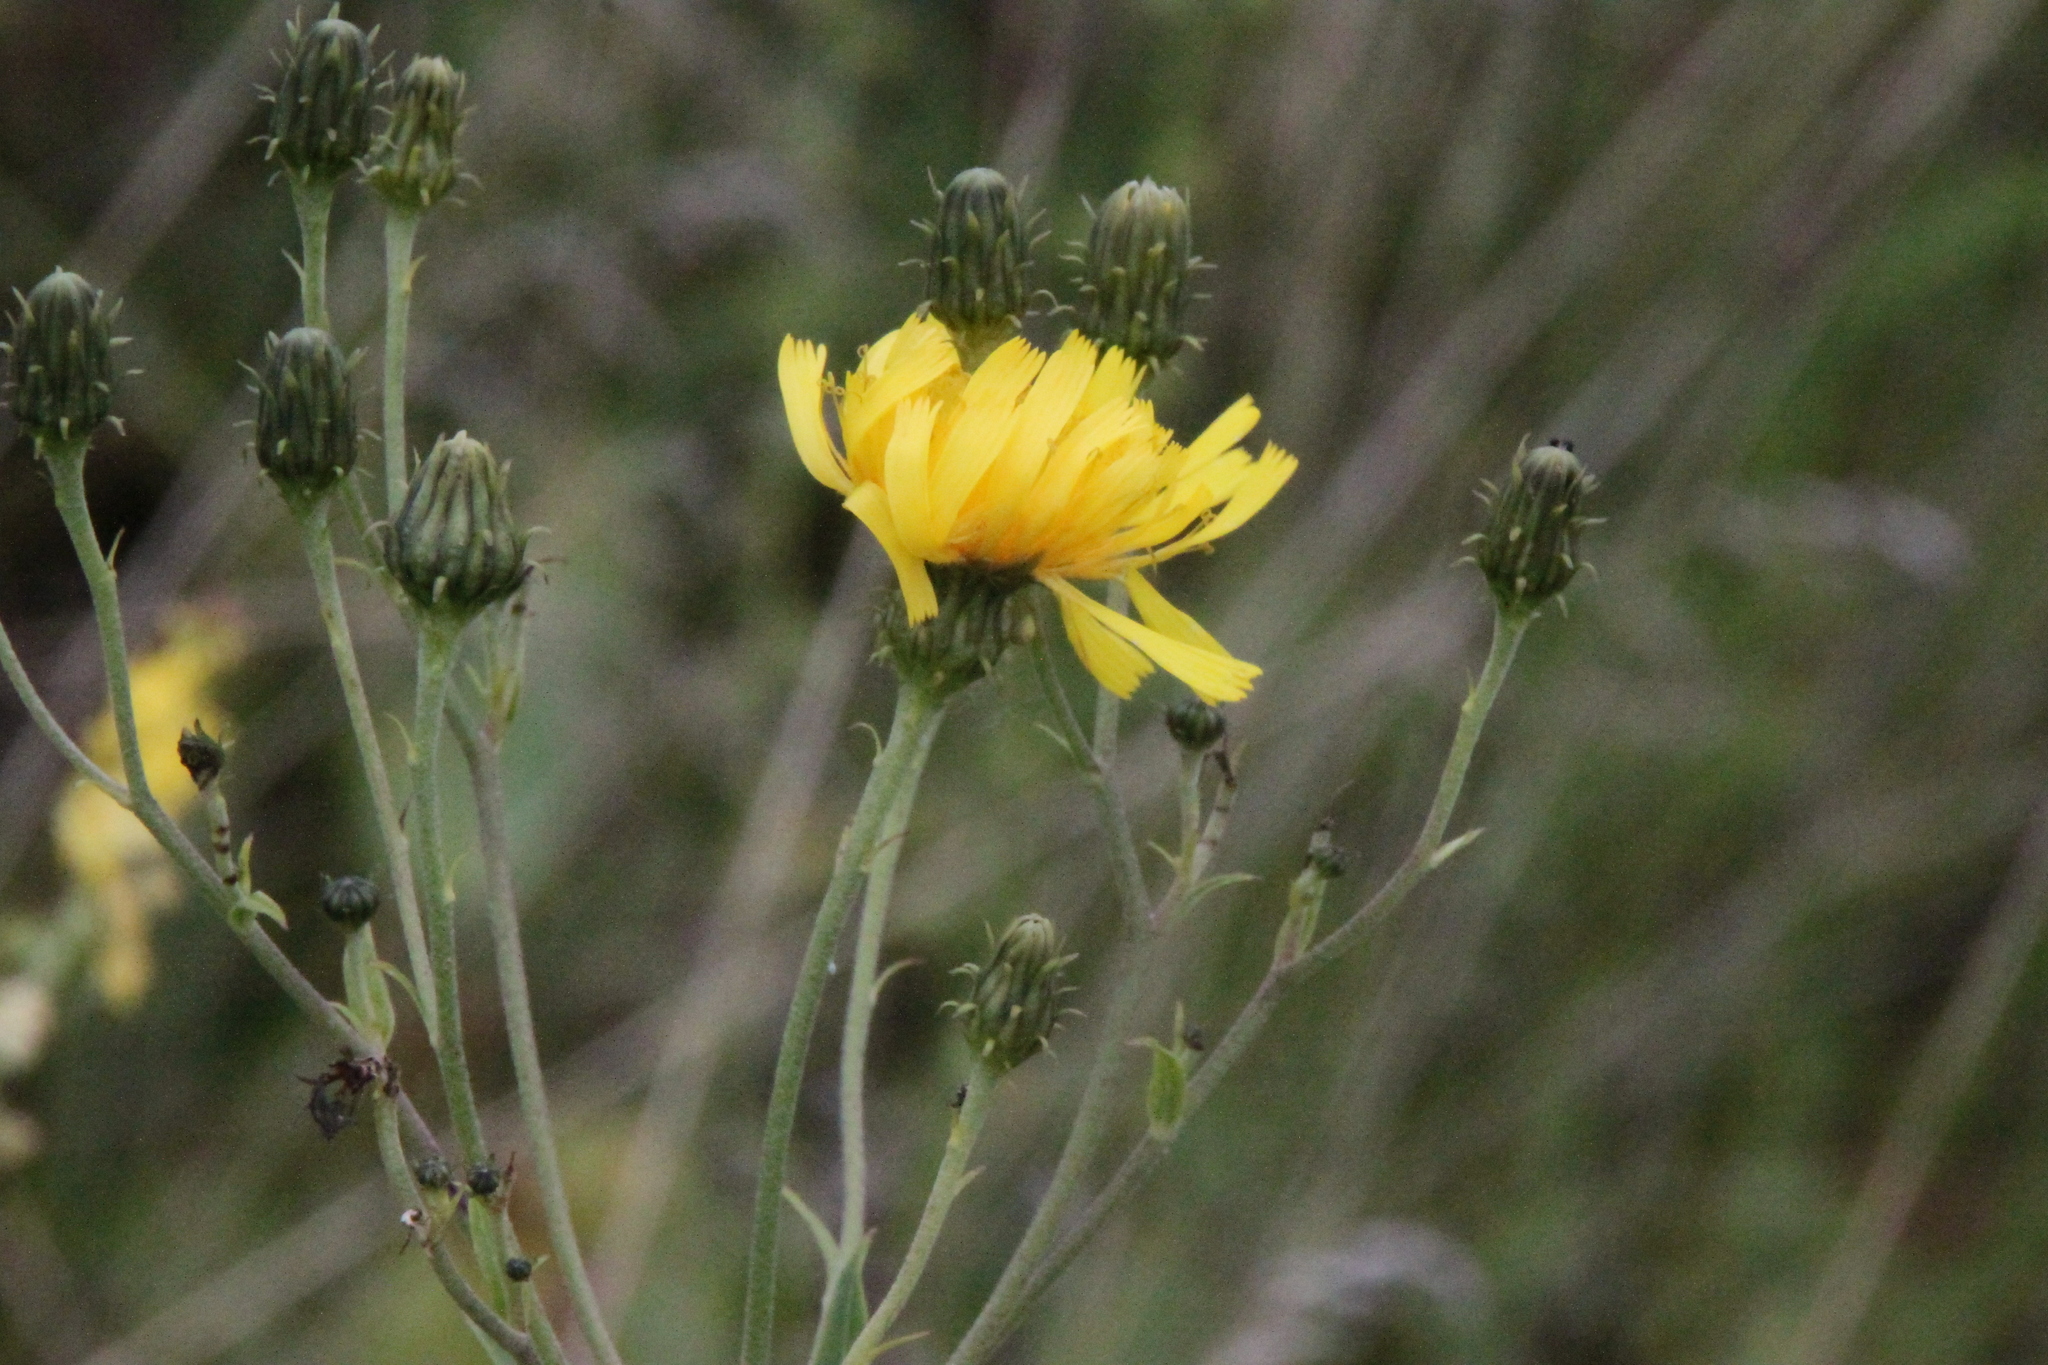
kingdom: Plantae
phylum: Tracheophyta
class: Magnoliopsida
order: Asterales
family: Asteraceae
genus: Hieracium
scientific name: Hieracium umbellatum
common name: Northern hawkweed
